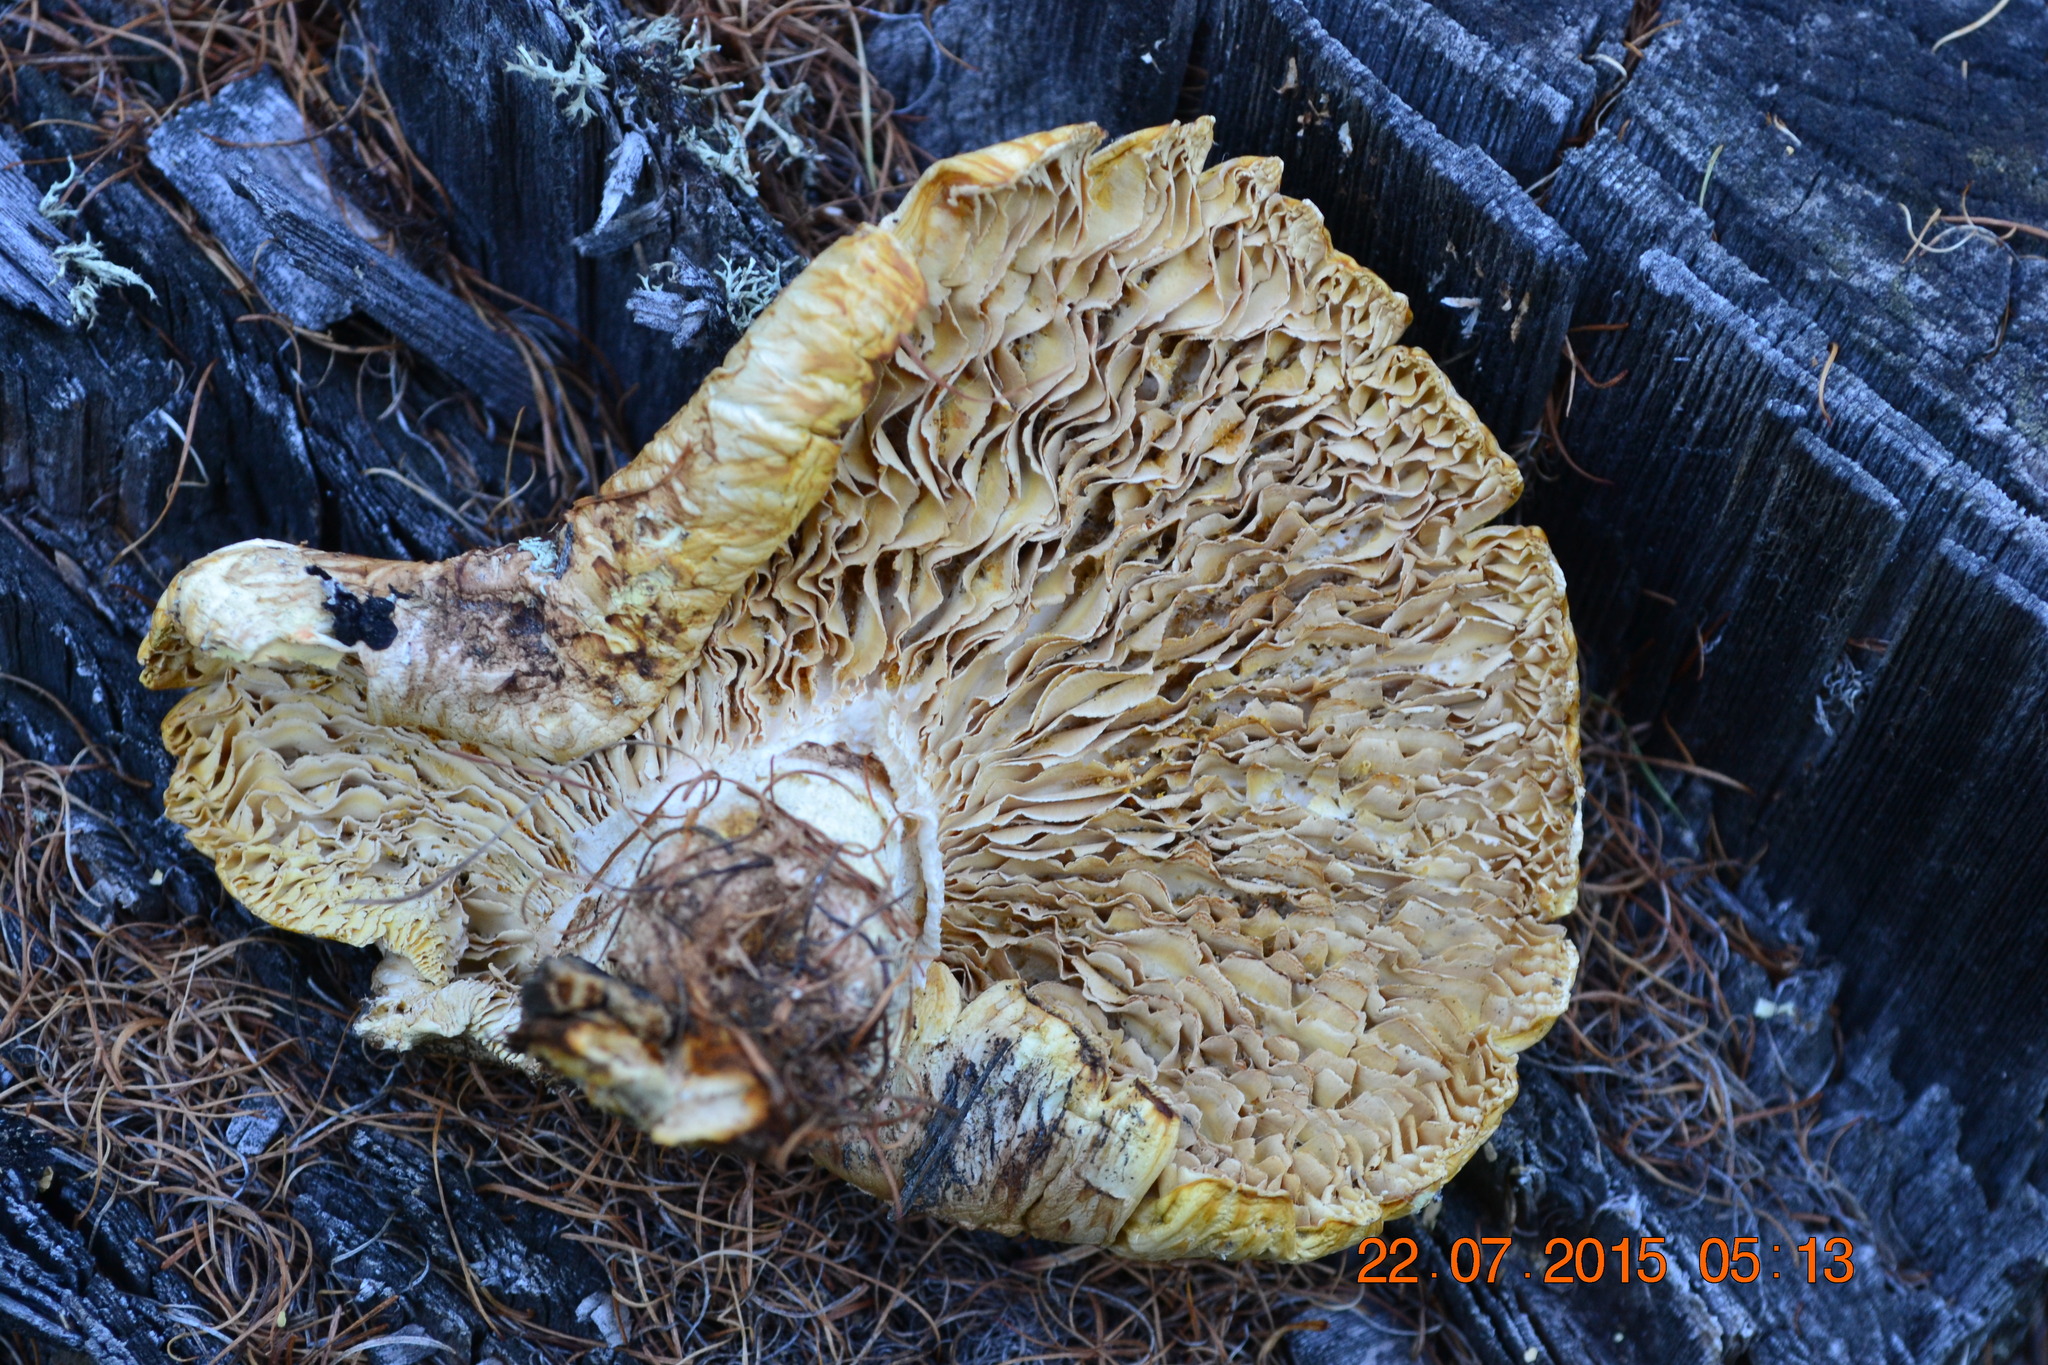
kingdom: Fungi
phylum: Basidiomycota
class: Agaricomycetes
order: Gloeophyllales
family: Gloeophyllaceae
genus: Neolentinus
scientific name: Neolentinus lepideus
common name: Scaly sawgill
